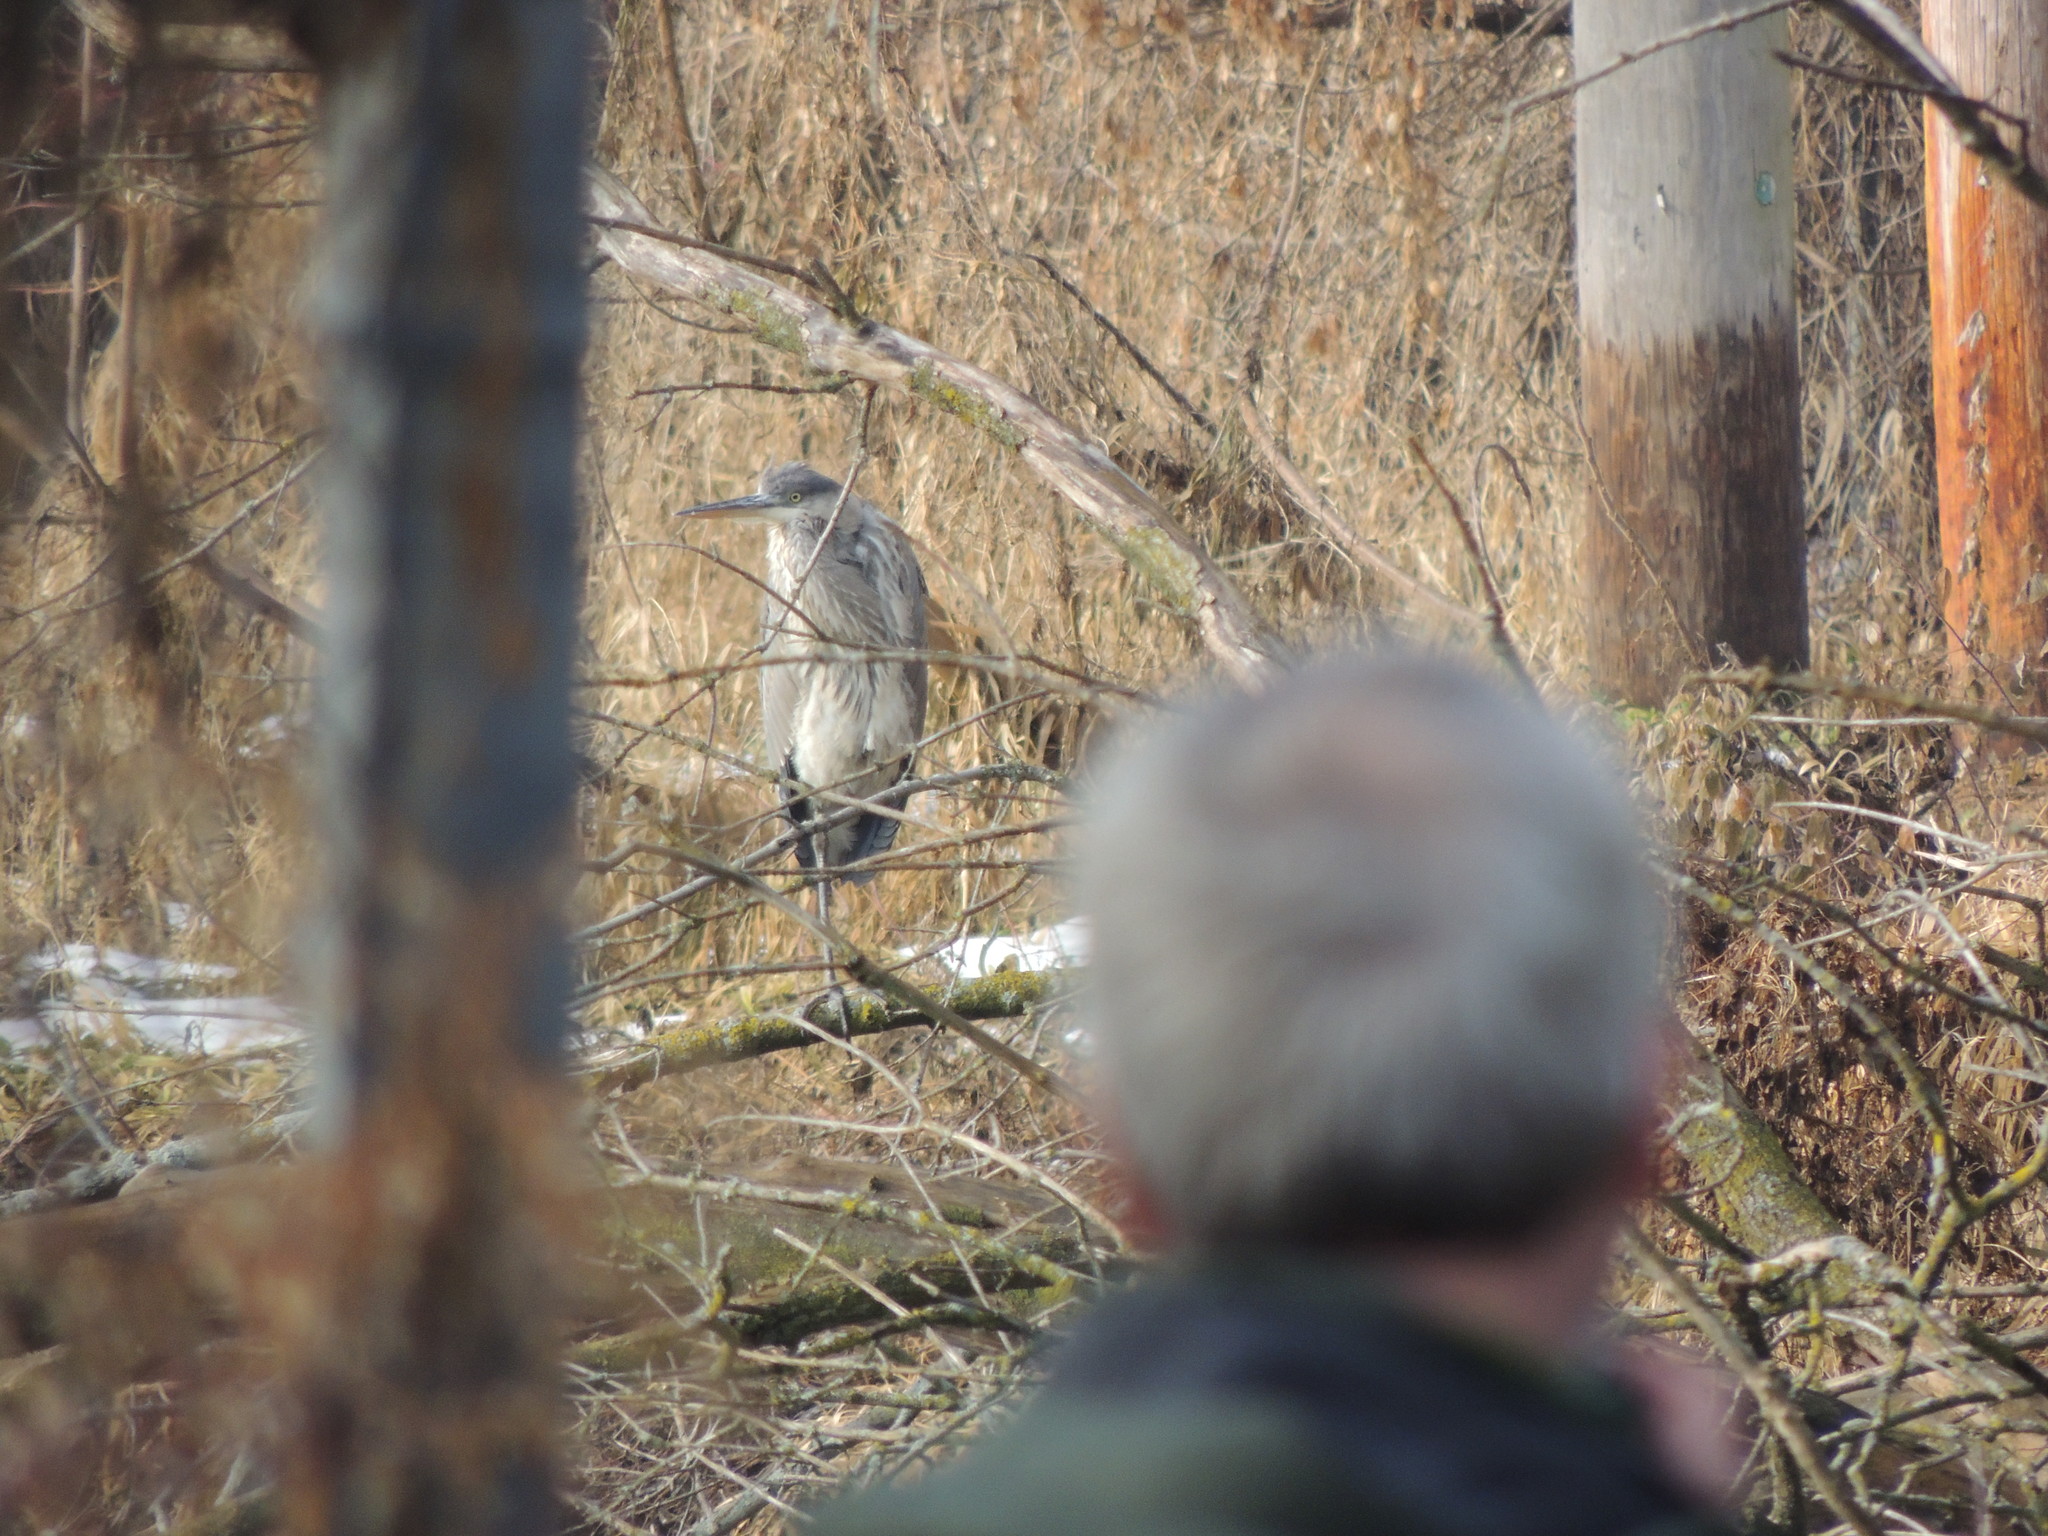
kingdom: Animalia
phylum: Chordata
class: Aves
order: Pelecaniformes
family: Ardeidae
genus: Ardea
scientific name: Ardea herodias
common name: Great blue heron
